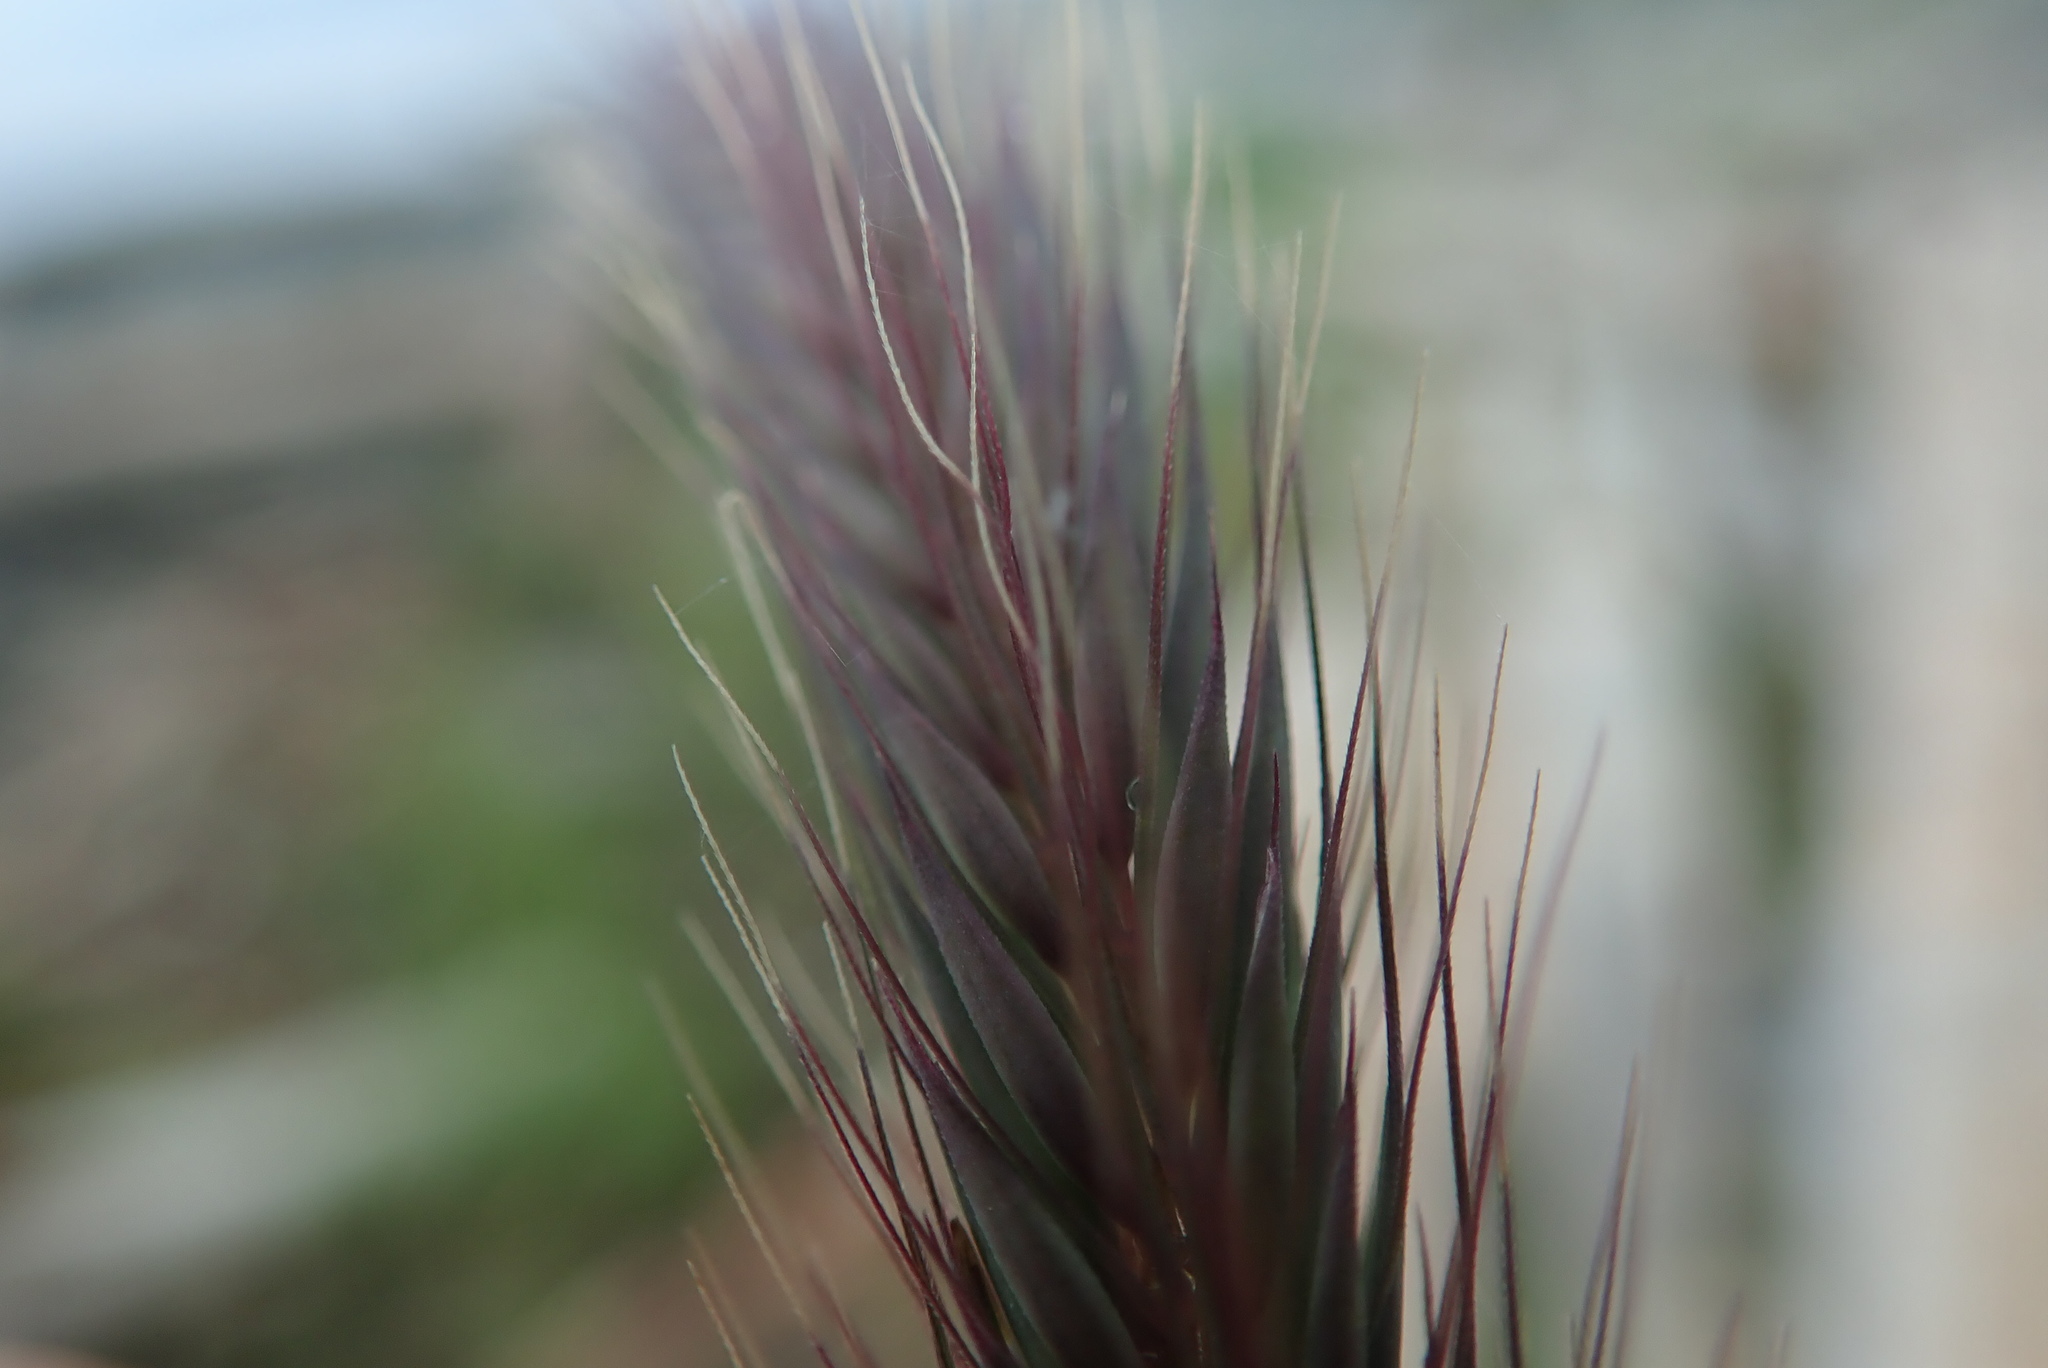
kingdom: Plantae
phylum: Tracheophyta
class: Liliopsida
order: Poales
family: Poaceae
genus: Hordeum
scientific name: Hordeum brachyantherum
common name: Meadow barley
